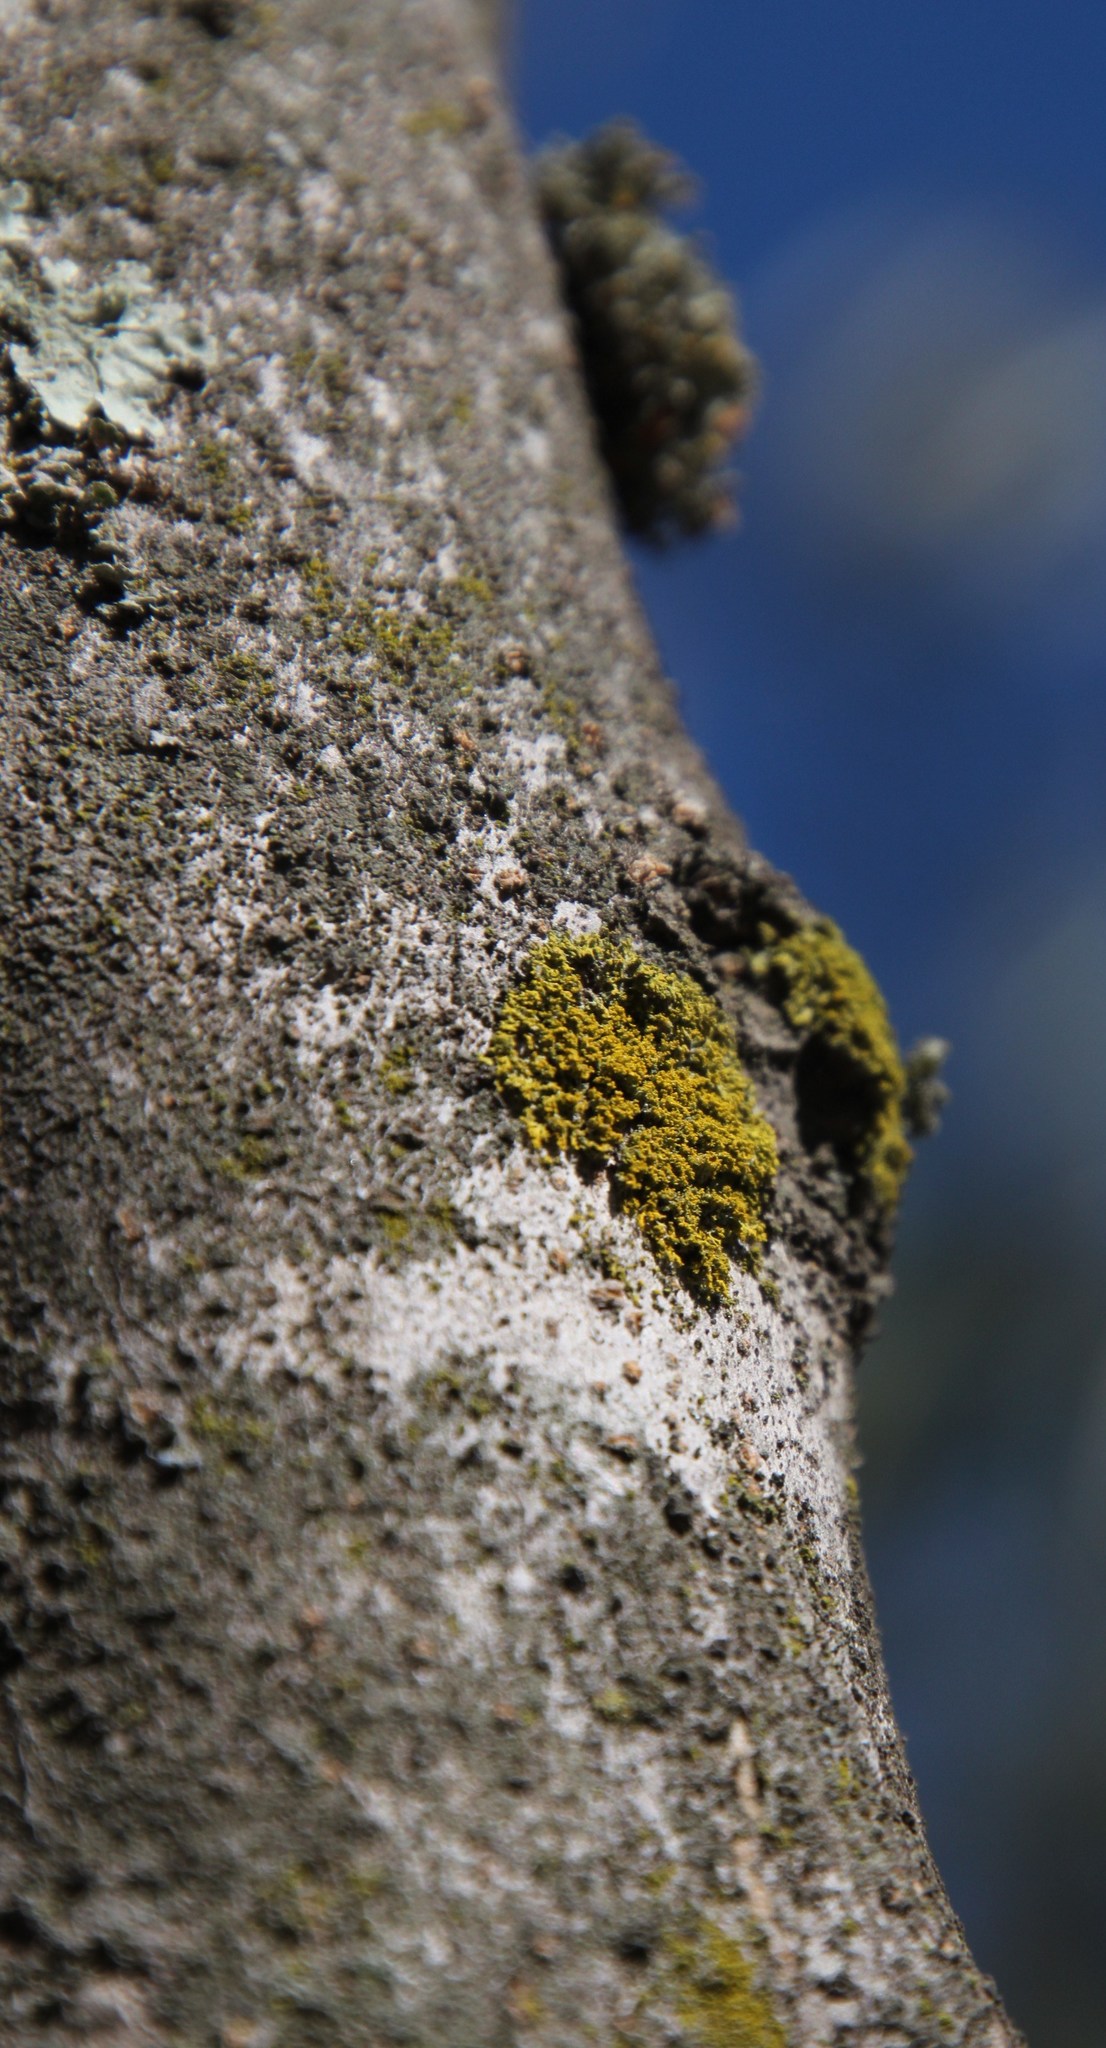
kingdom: Fungi
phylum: Ascomycota
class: Candelariomycetes
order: Candelariales
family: Candelariaceae
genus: Candelaria
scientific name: Candelaria concolor
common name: Candleflame lichen
